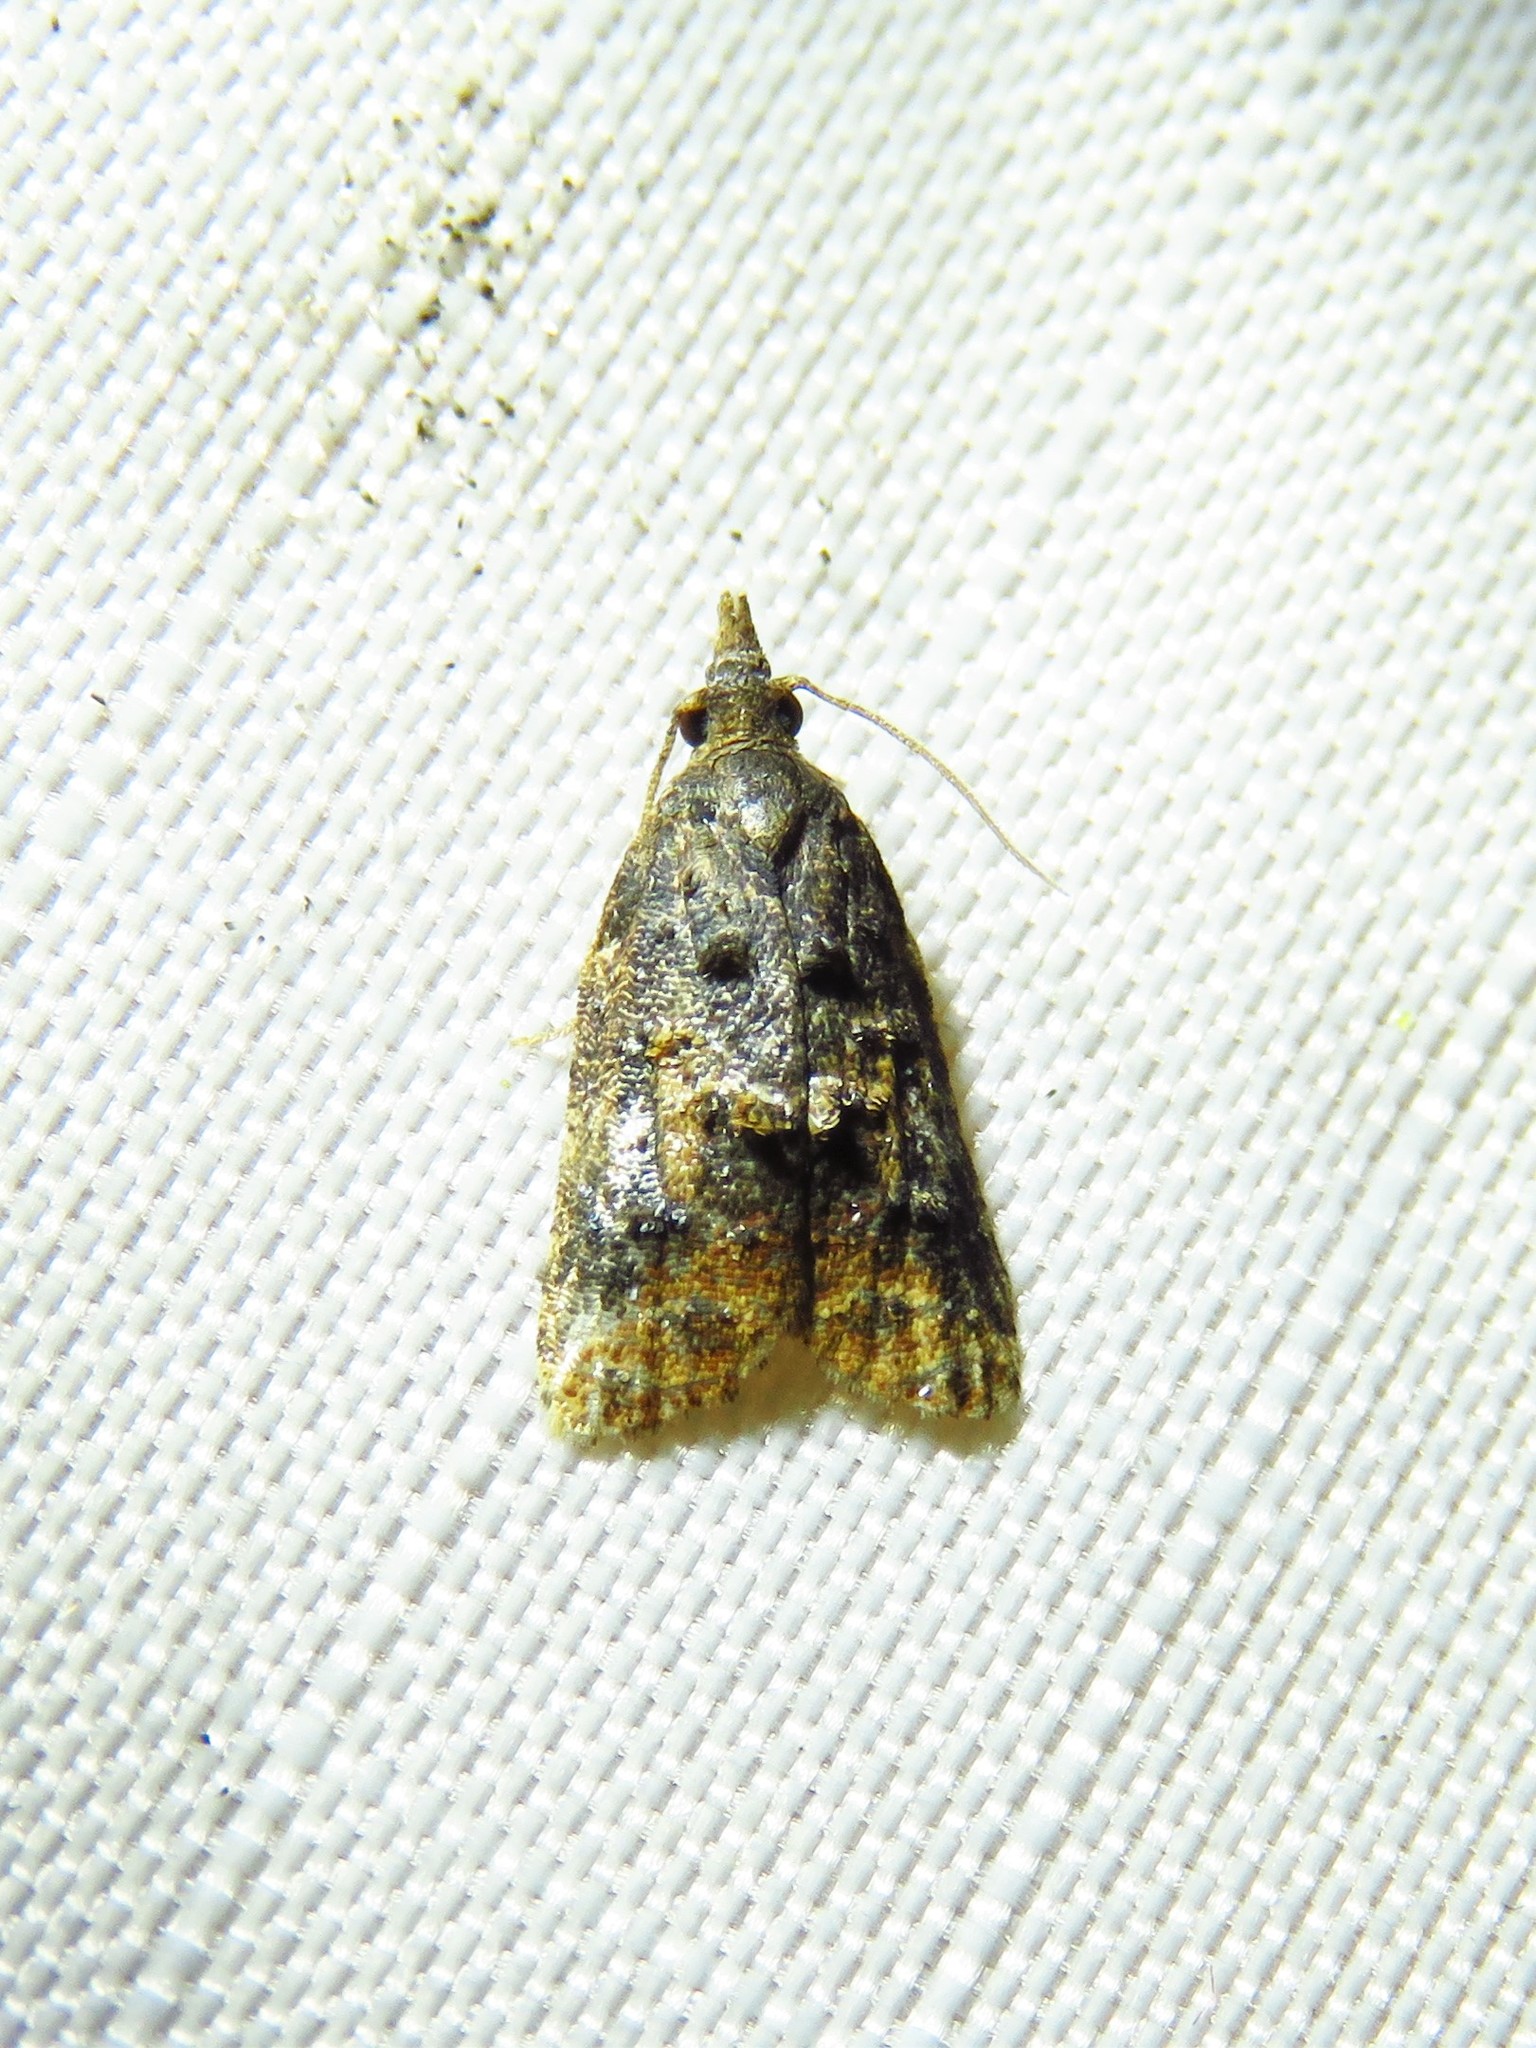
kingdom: Animalia
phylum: Arthropoda
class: Insecta
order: Lepidoptera
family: Tortricidae
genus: Platynota
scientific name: Platynota semiustana
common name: Singed platynota
